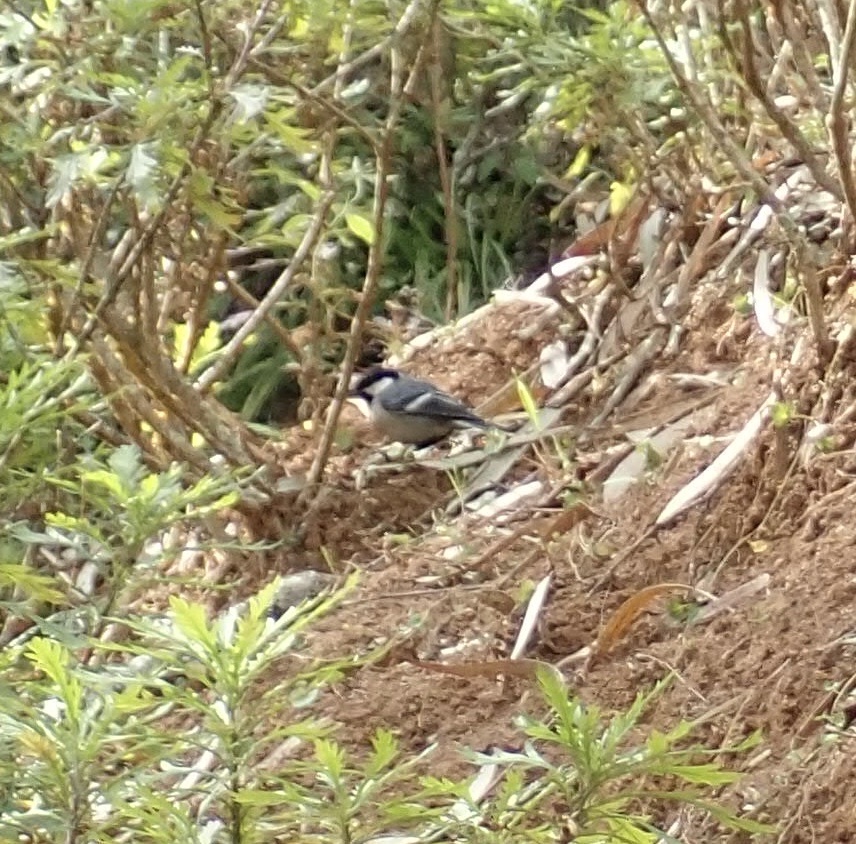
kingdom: Animalia
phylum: Chordata
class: Aves
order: Passeriformes
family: Paridae
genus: Parus
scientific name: Parus cinereus
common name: Cinereous tit
